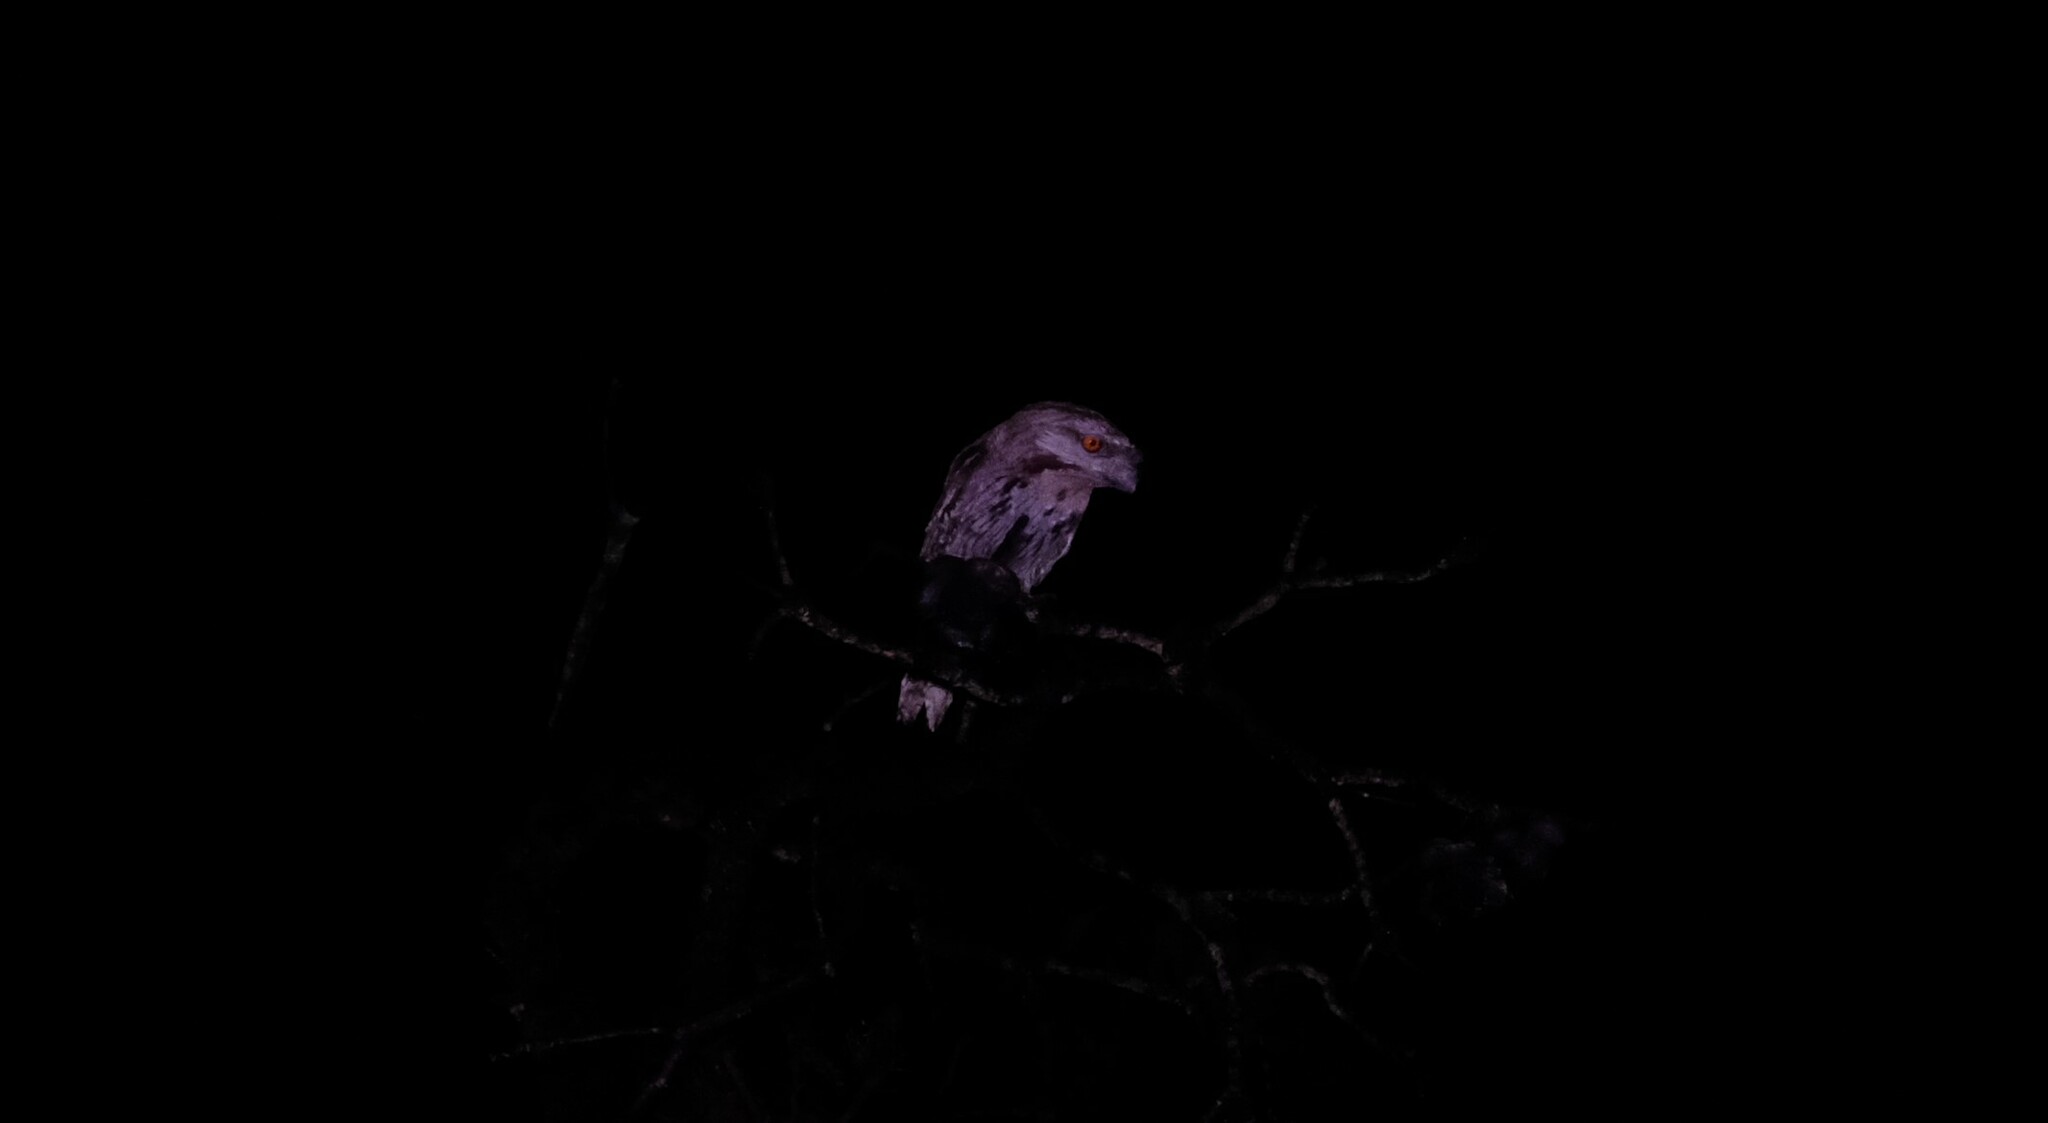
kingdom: Animalia
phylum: Chordata
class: Aves
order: Caprimulgiformes
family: Podargidae
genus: Podargus
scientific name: Podargus strigoides
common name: Tawny frogmouth
